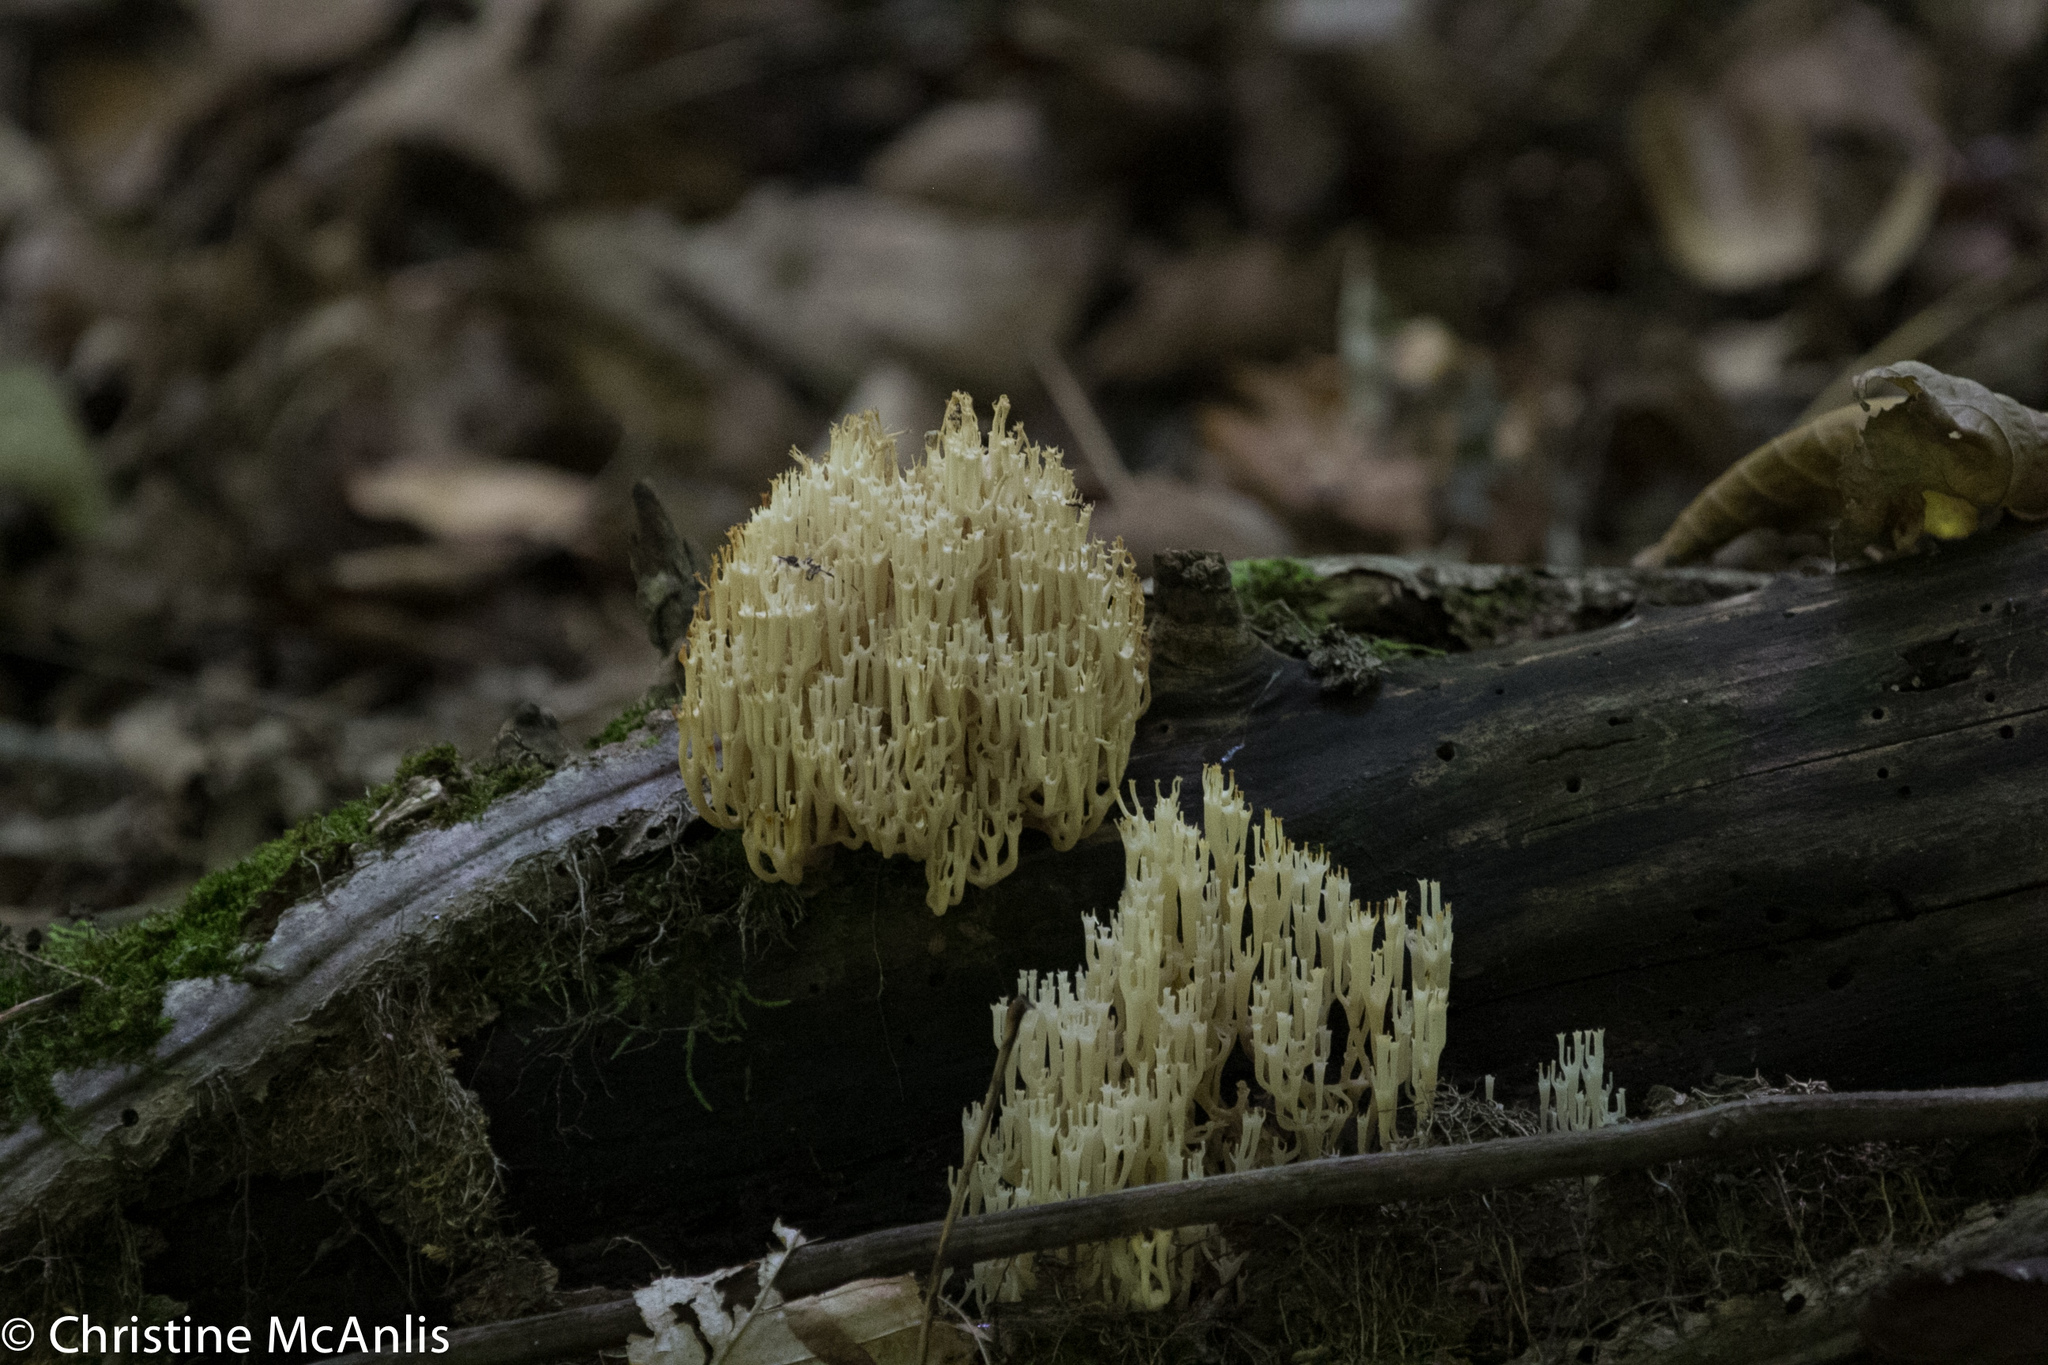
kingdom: Fungi
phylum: Basidiomycota
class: Agaricomycetes
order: Russulales
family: Auriscalpiaceae
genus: Artomyces
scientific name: Artomyces pyxidatus
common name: Crown-tipped coral fungus
